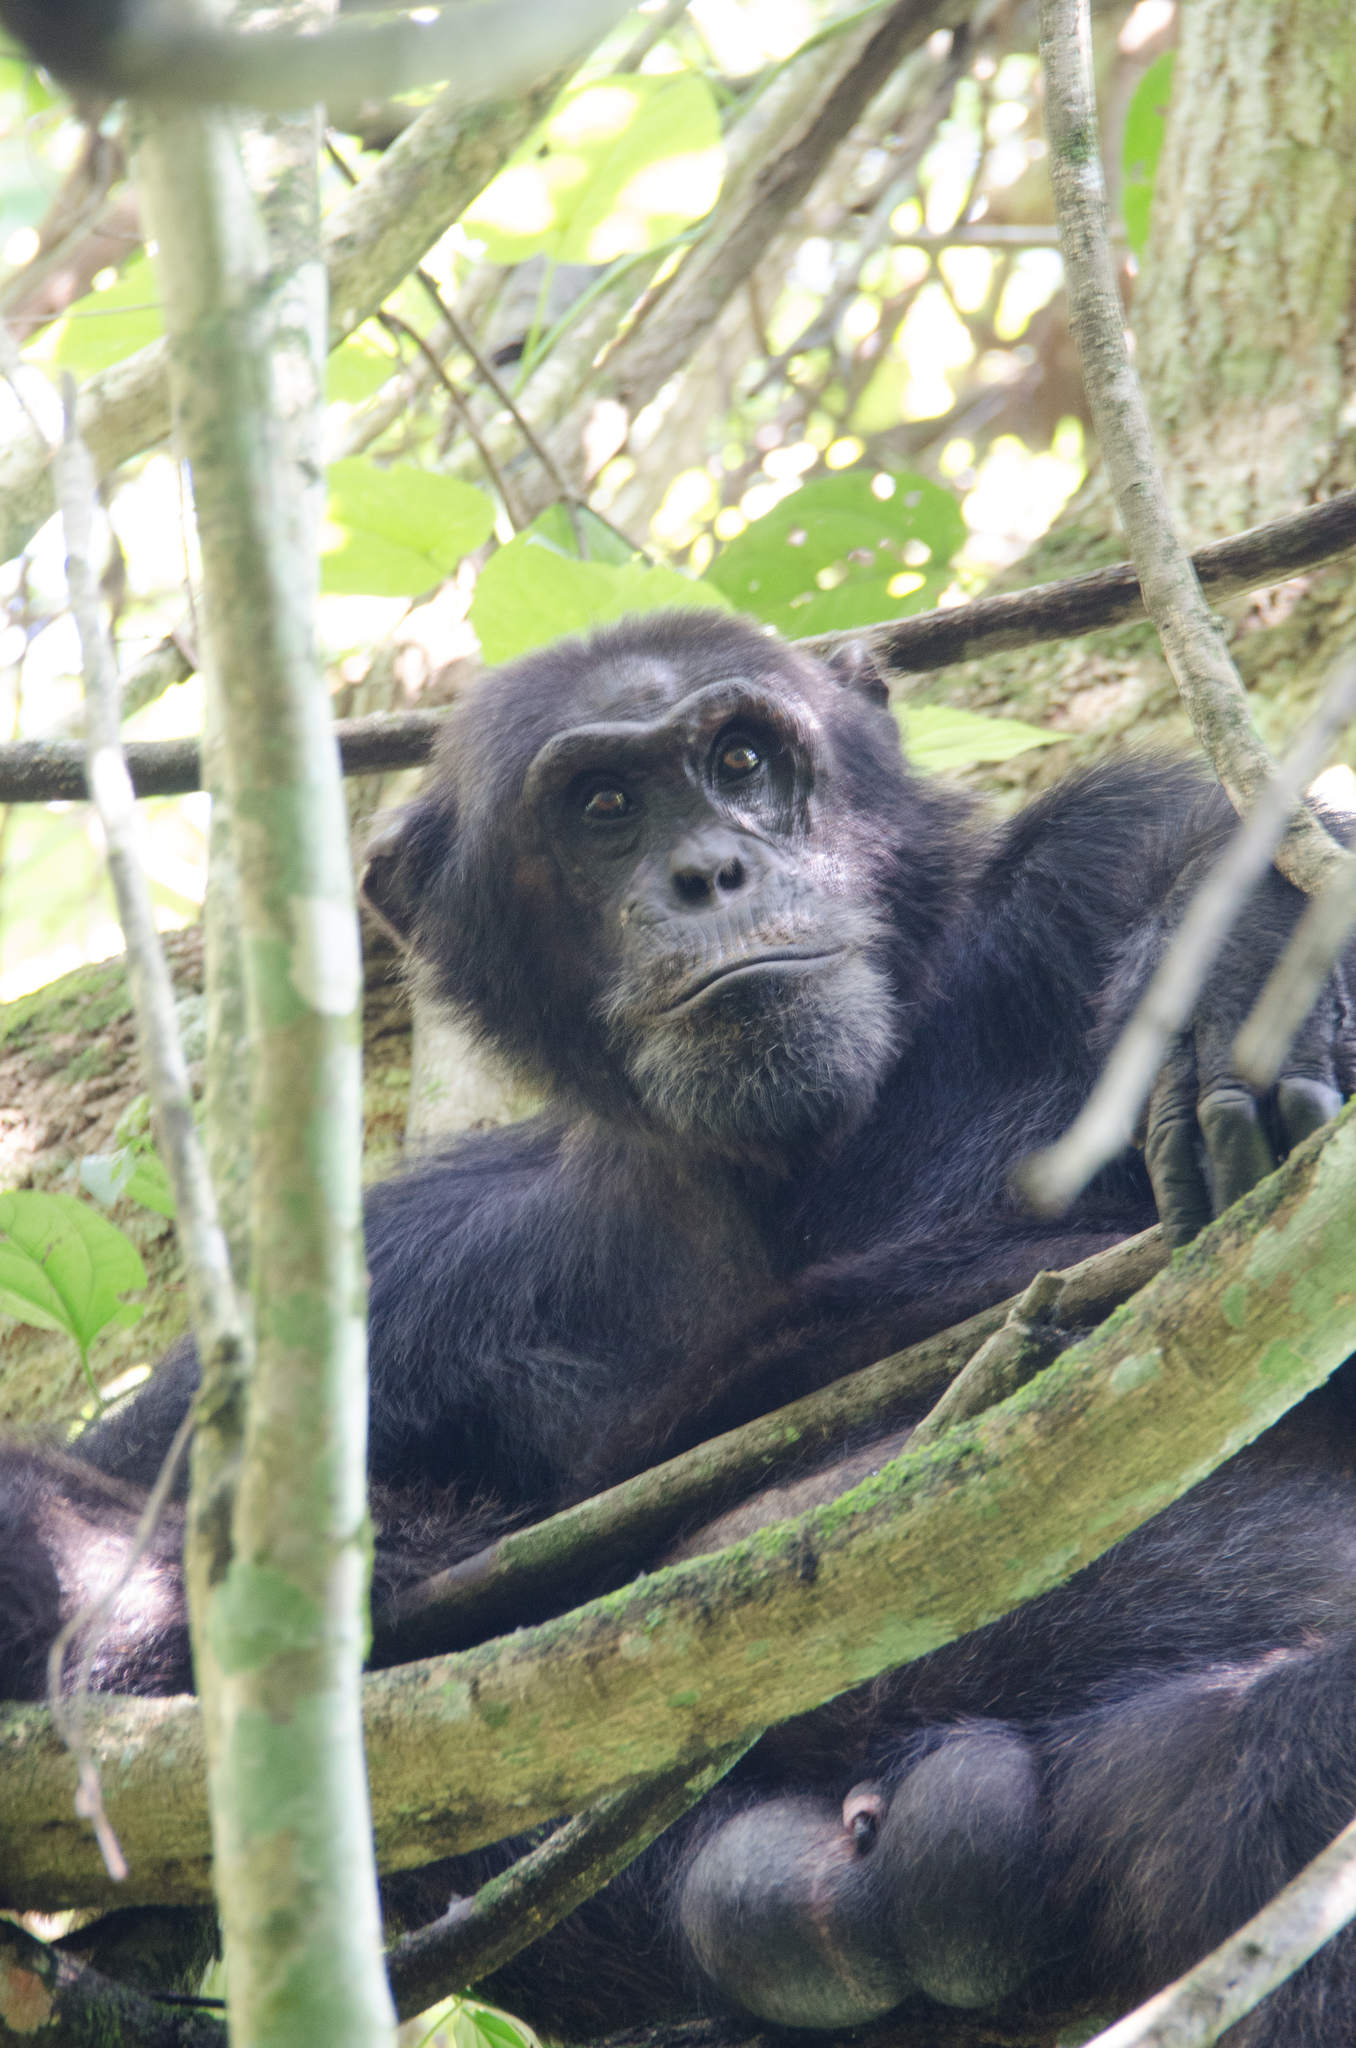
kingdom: Animalia
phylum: Chordata
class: Mammalia
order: Primates
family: Hominidae
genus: Pan
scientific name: Pan troglodytes
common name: Chimpanzee
